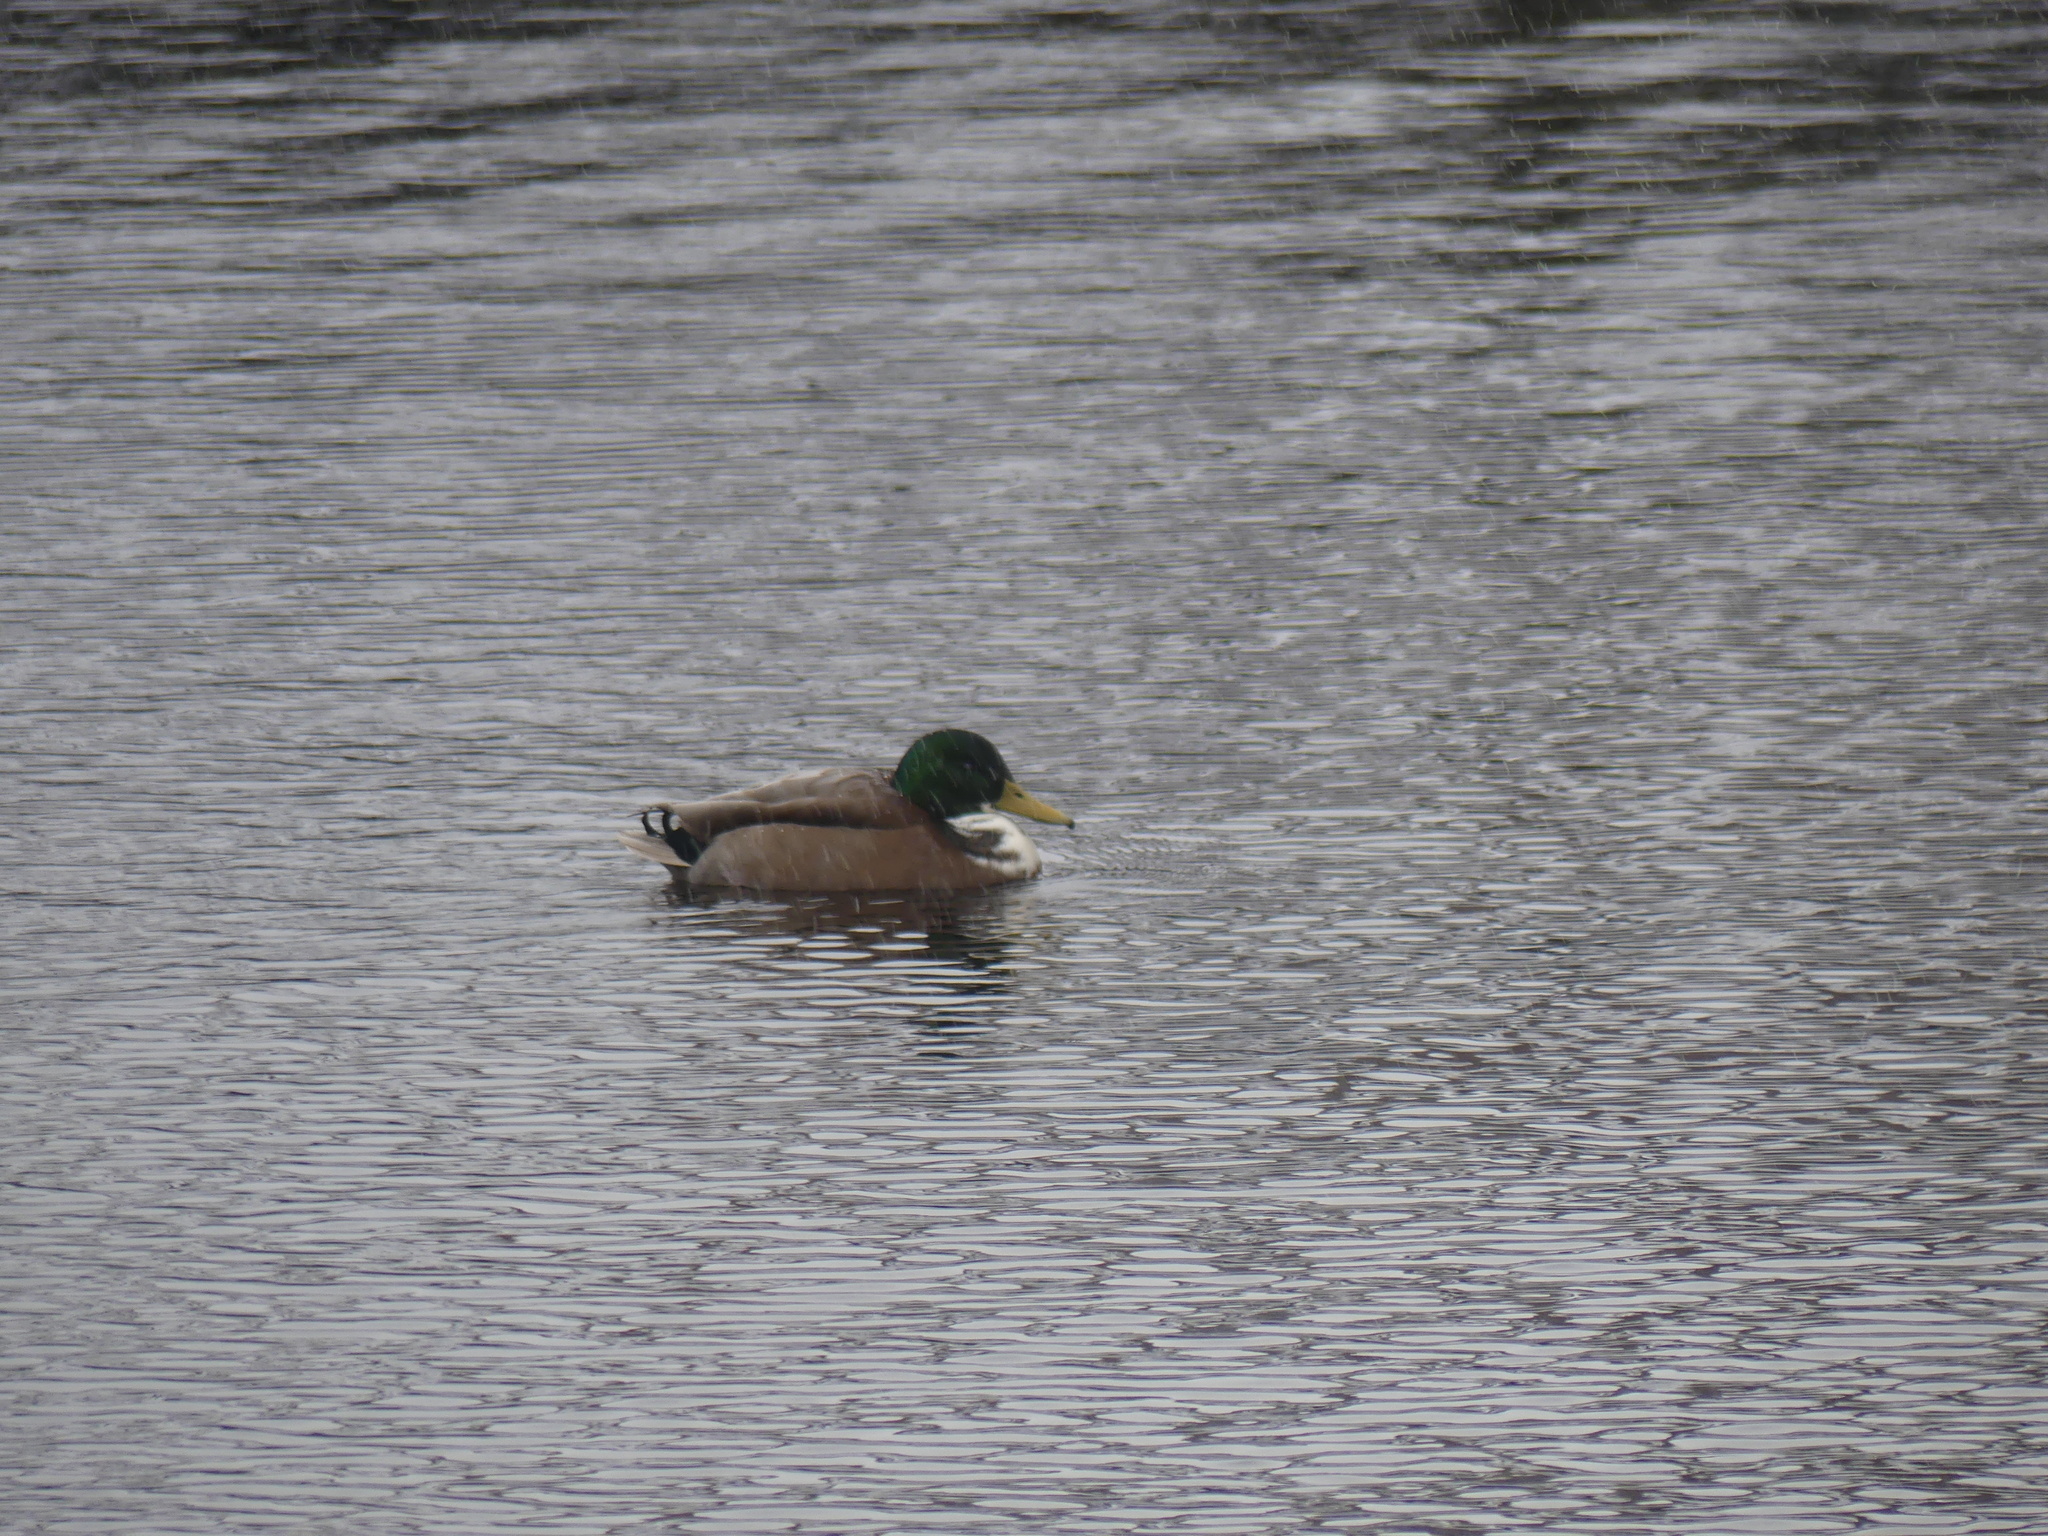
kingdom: Animalia
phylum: Chordata
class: Aves
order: Anseriformes
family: Anatidae
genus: Anas
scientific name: Anas platyrhynchos
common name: Mallard
